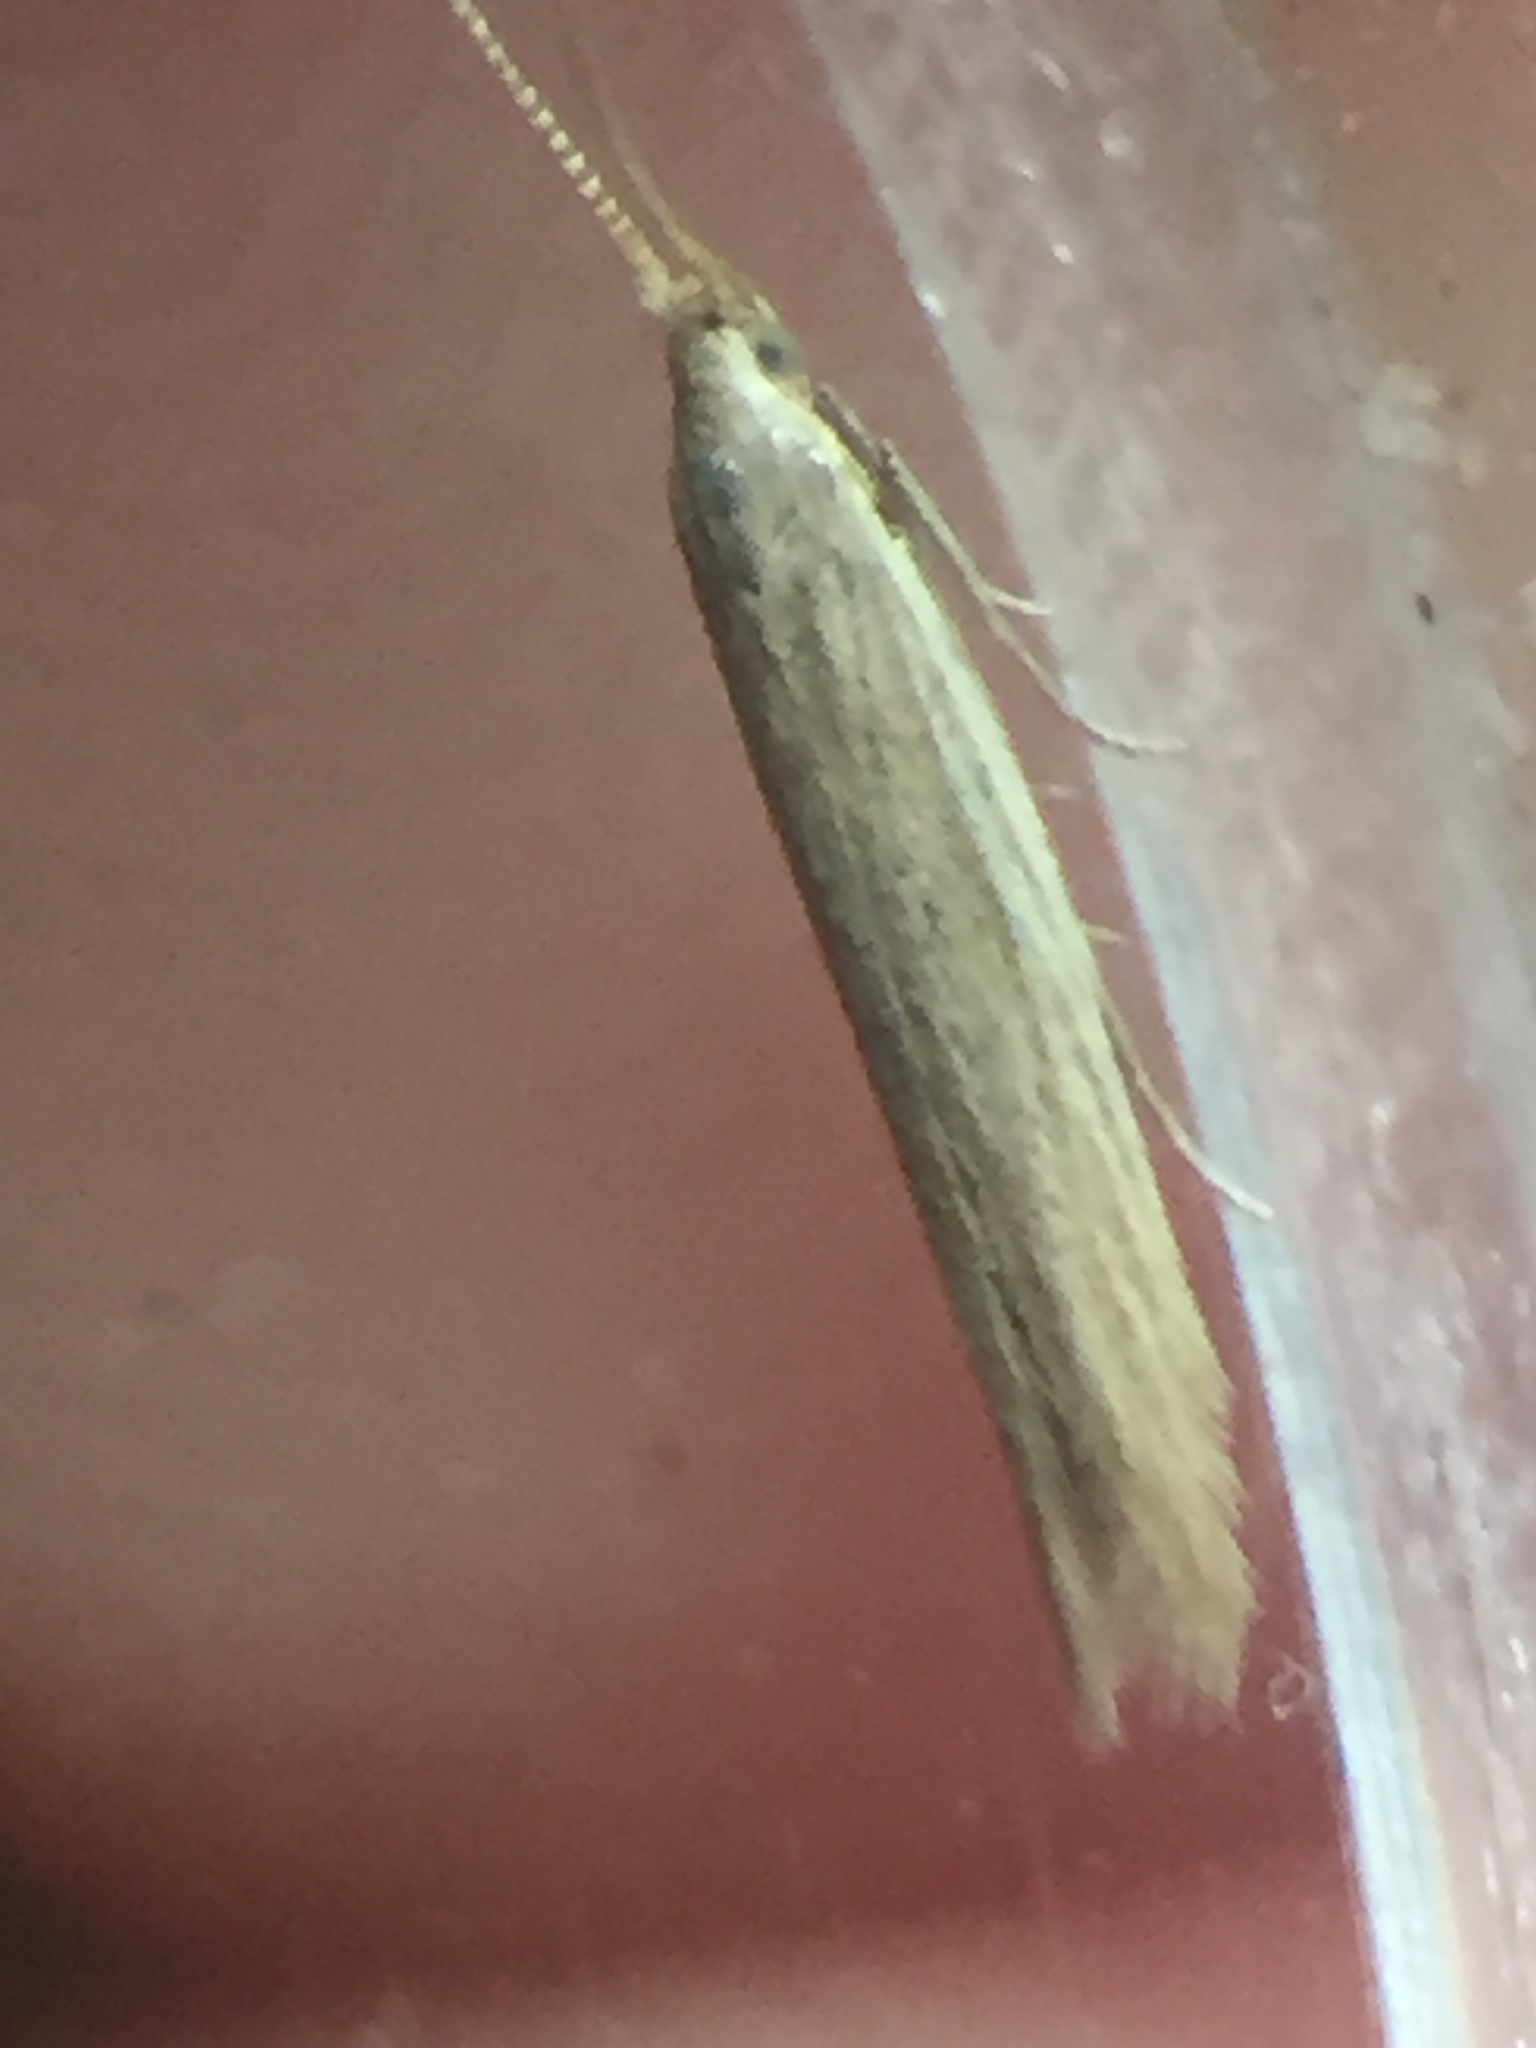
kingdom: Animalia
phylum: Arthropoda
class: Insecta
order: Lepidoptera
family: Coleophoridae
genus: Coleophora
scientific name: Coleophora versurella
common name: Pale orache case-bearer
